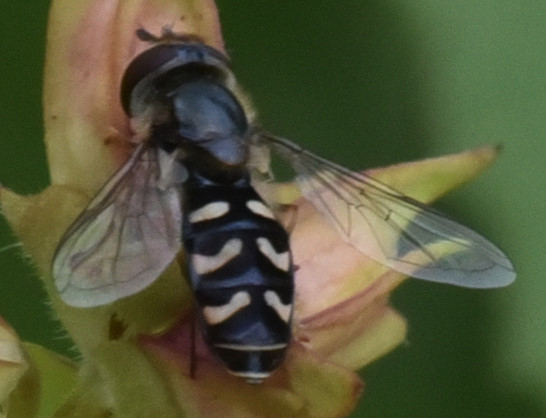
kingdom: Animalia
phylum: Arthropoda
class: Insecta
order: Diptera
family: Syrphidae
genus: Scaeva
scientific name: Scaeva affinis
